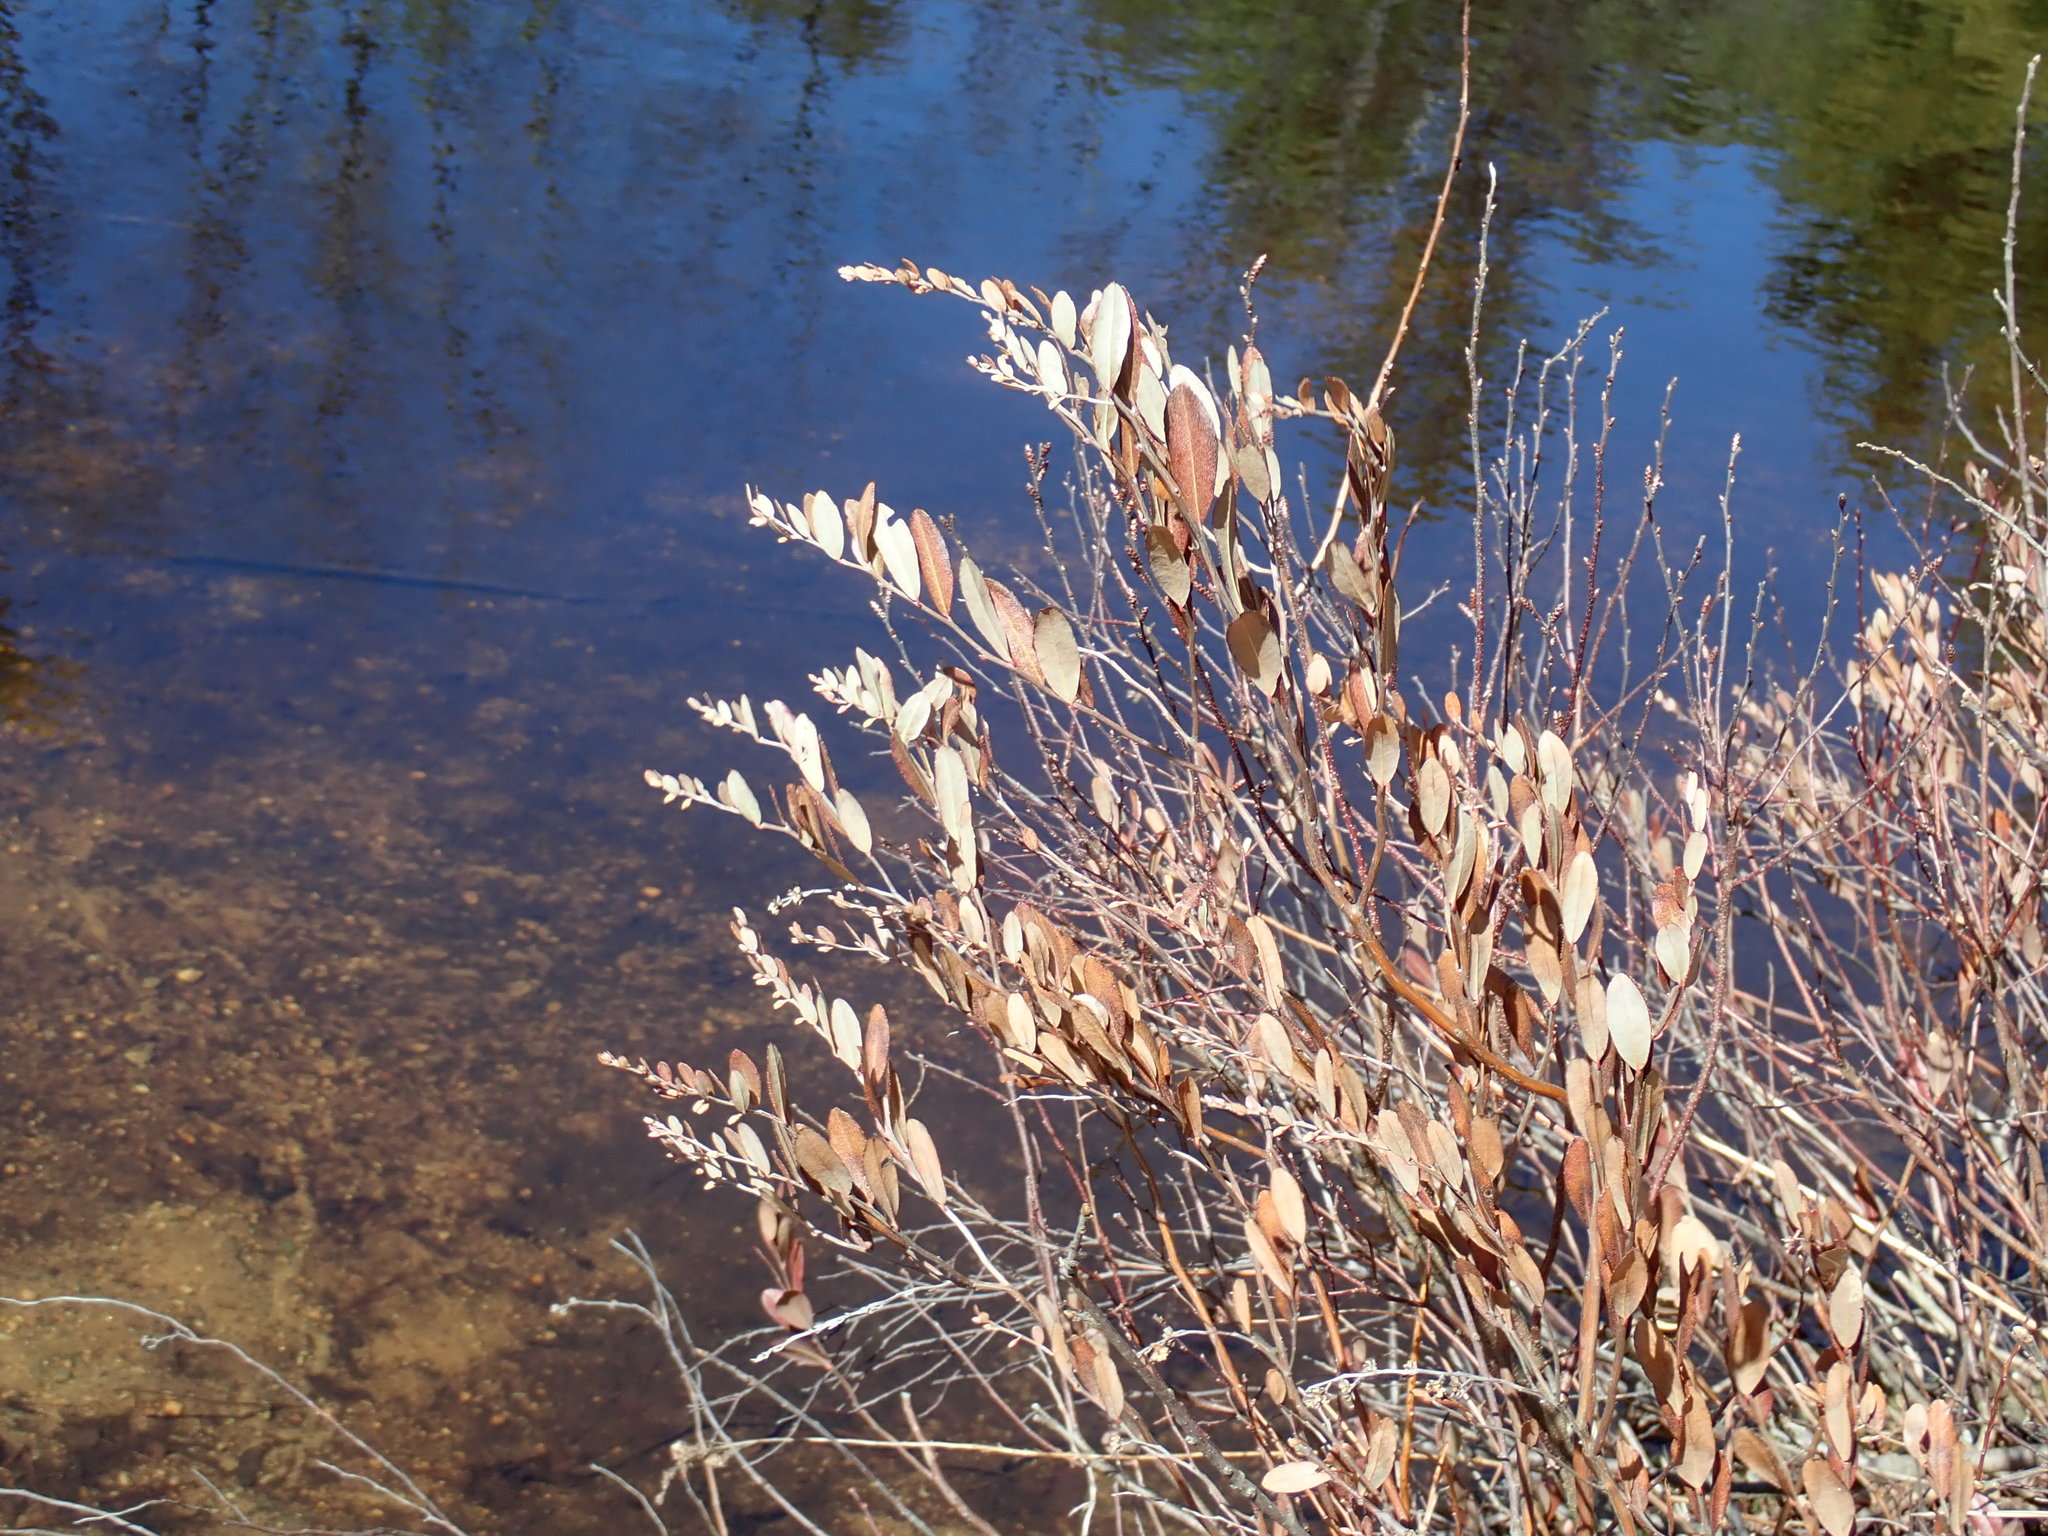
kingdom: Plantae
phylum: Tracheophyta
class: Magnoliopsida
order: Ericales
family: Ericaceae
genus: Chamaedaphne
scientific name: Chamaedaphne calyculata
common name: Leatherleaf
